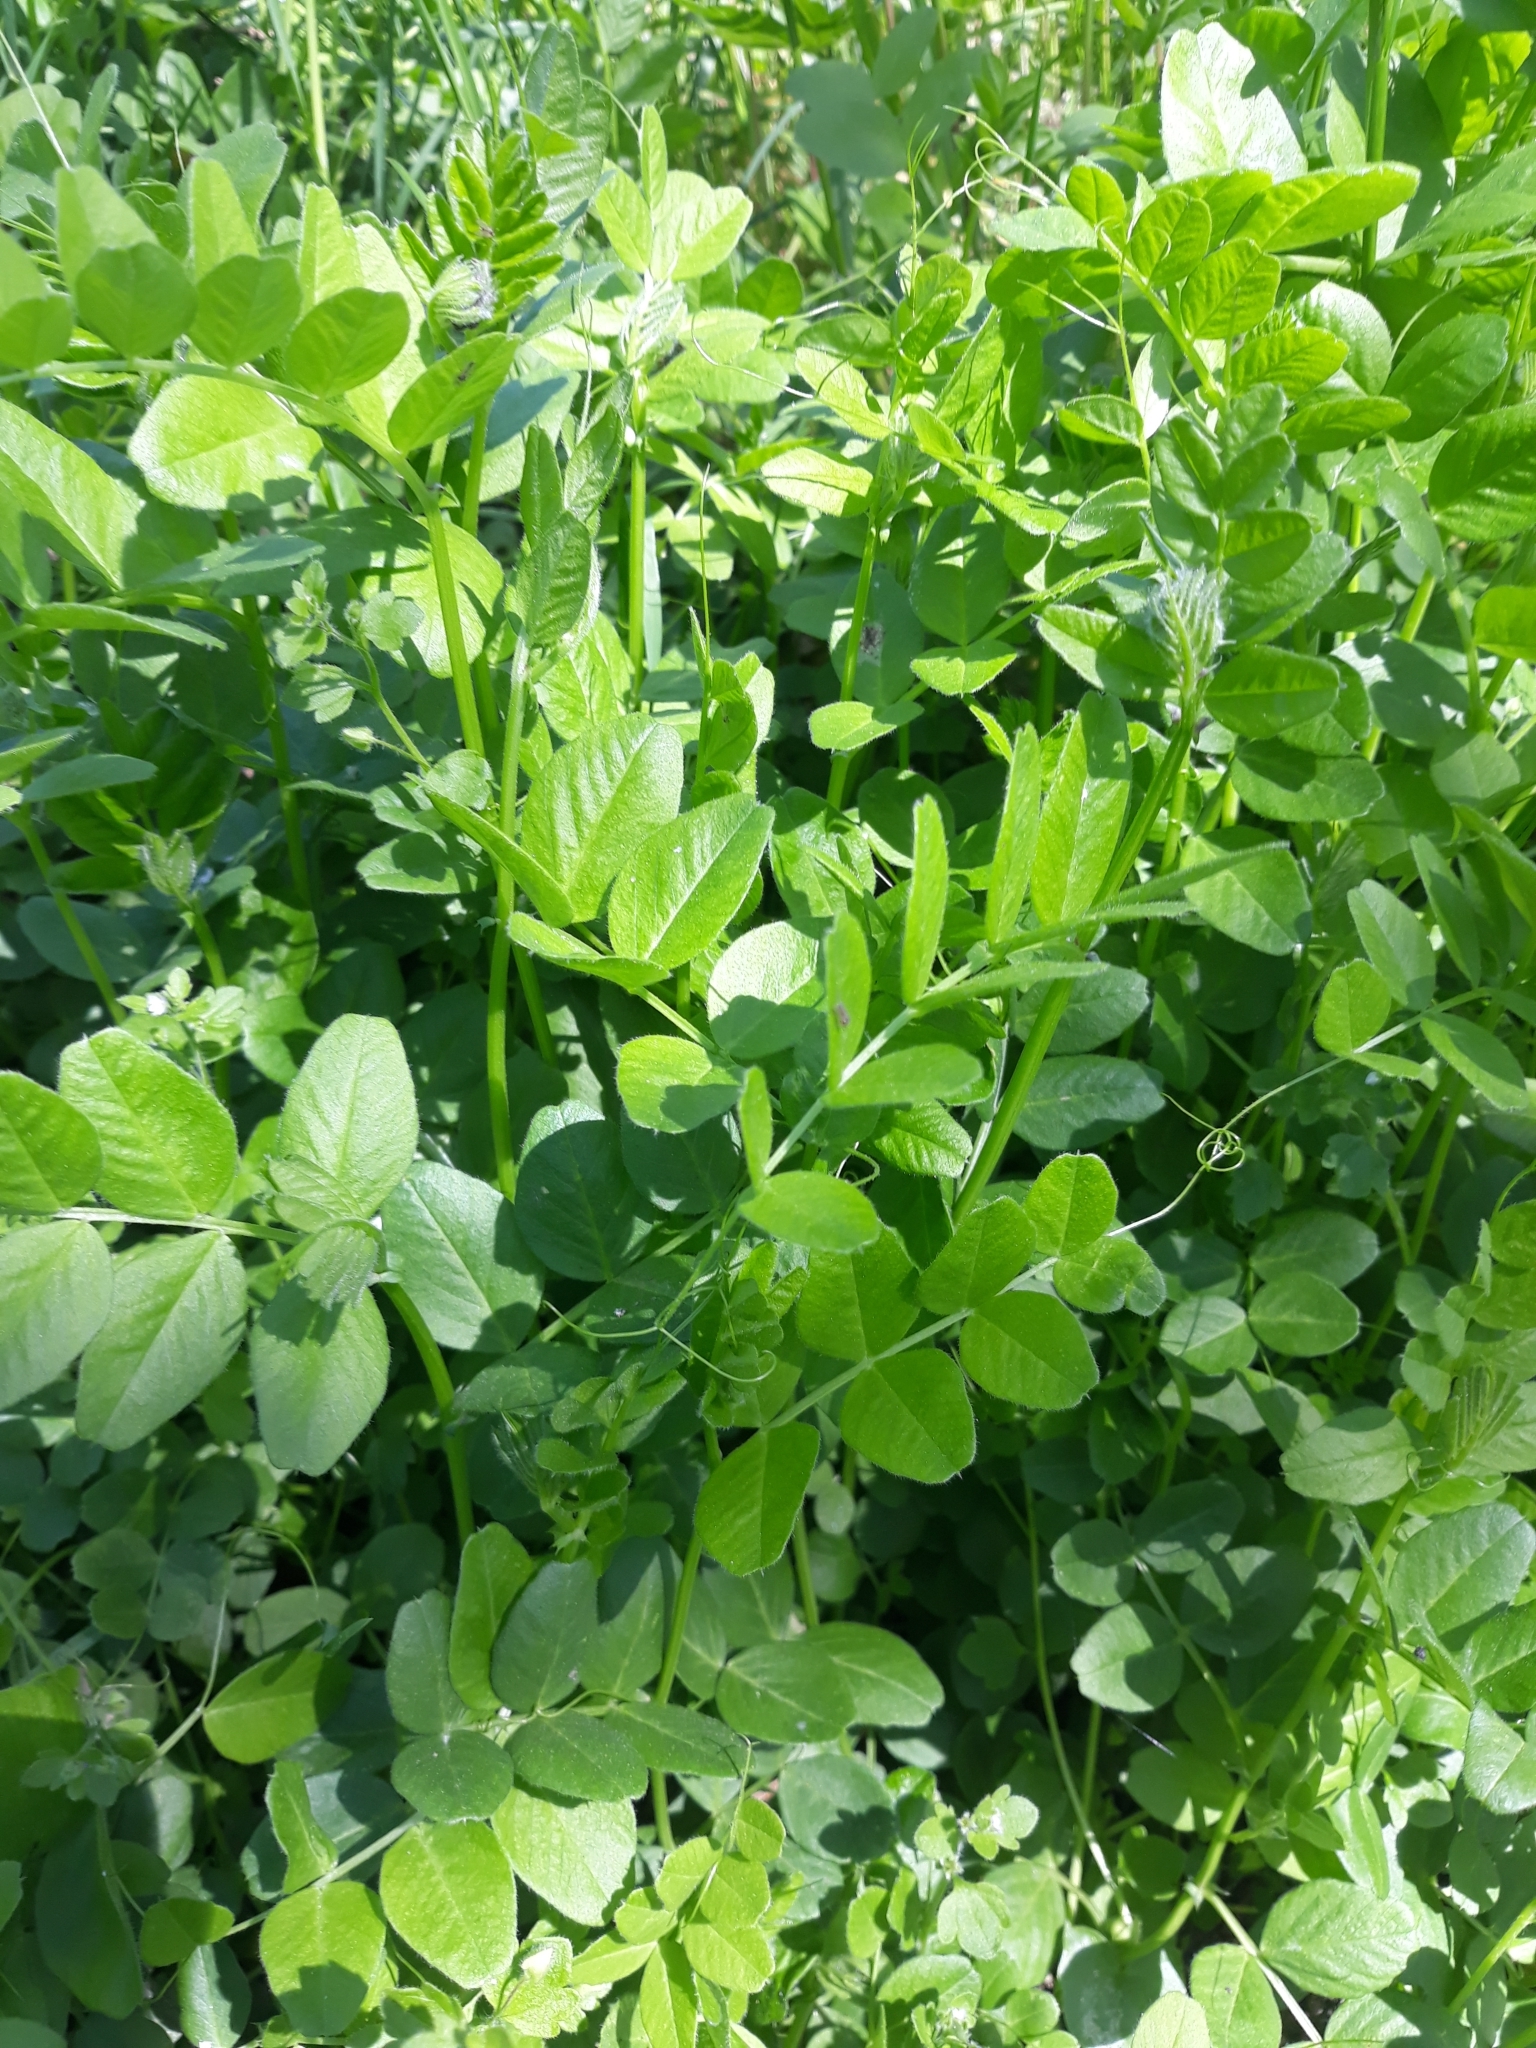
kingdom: Plantae
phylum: Tracheophyta
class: Magnoliopsida
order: Fabales
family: Fabaceae
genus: Vicia
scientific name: Vicia sepium
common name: Bush vetch
